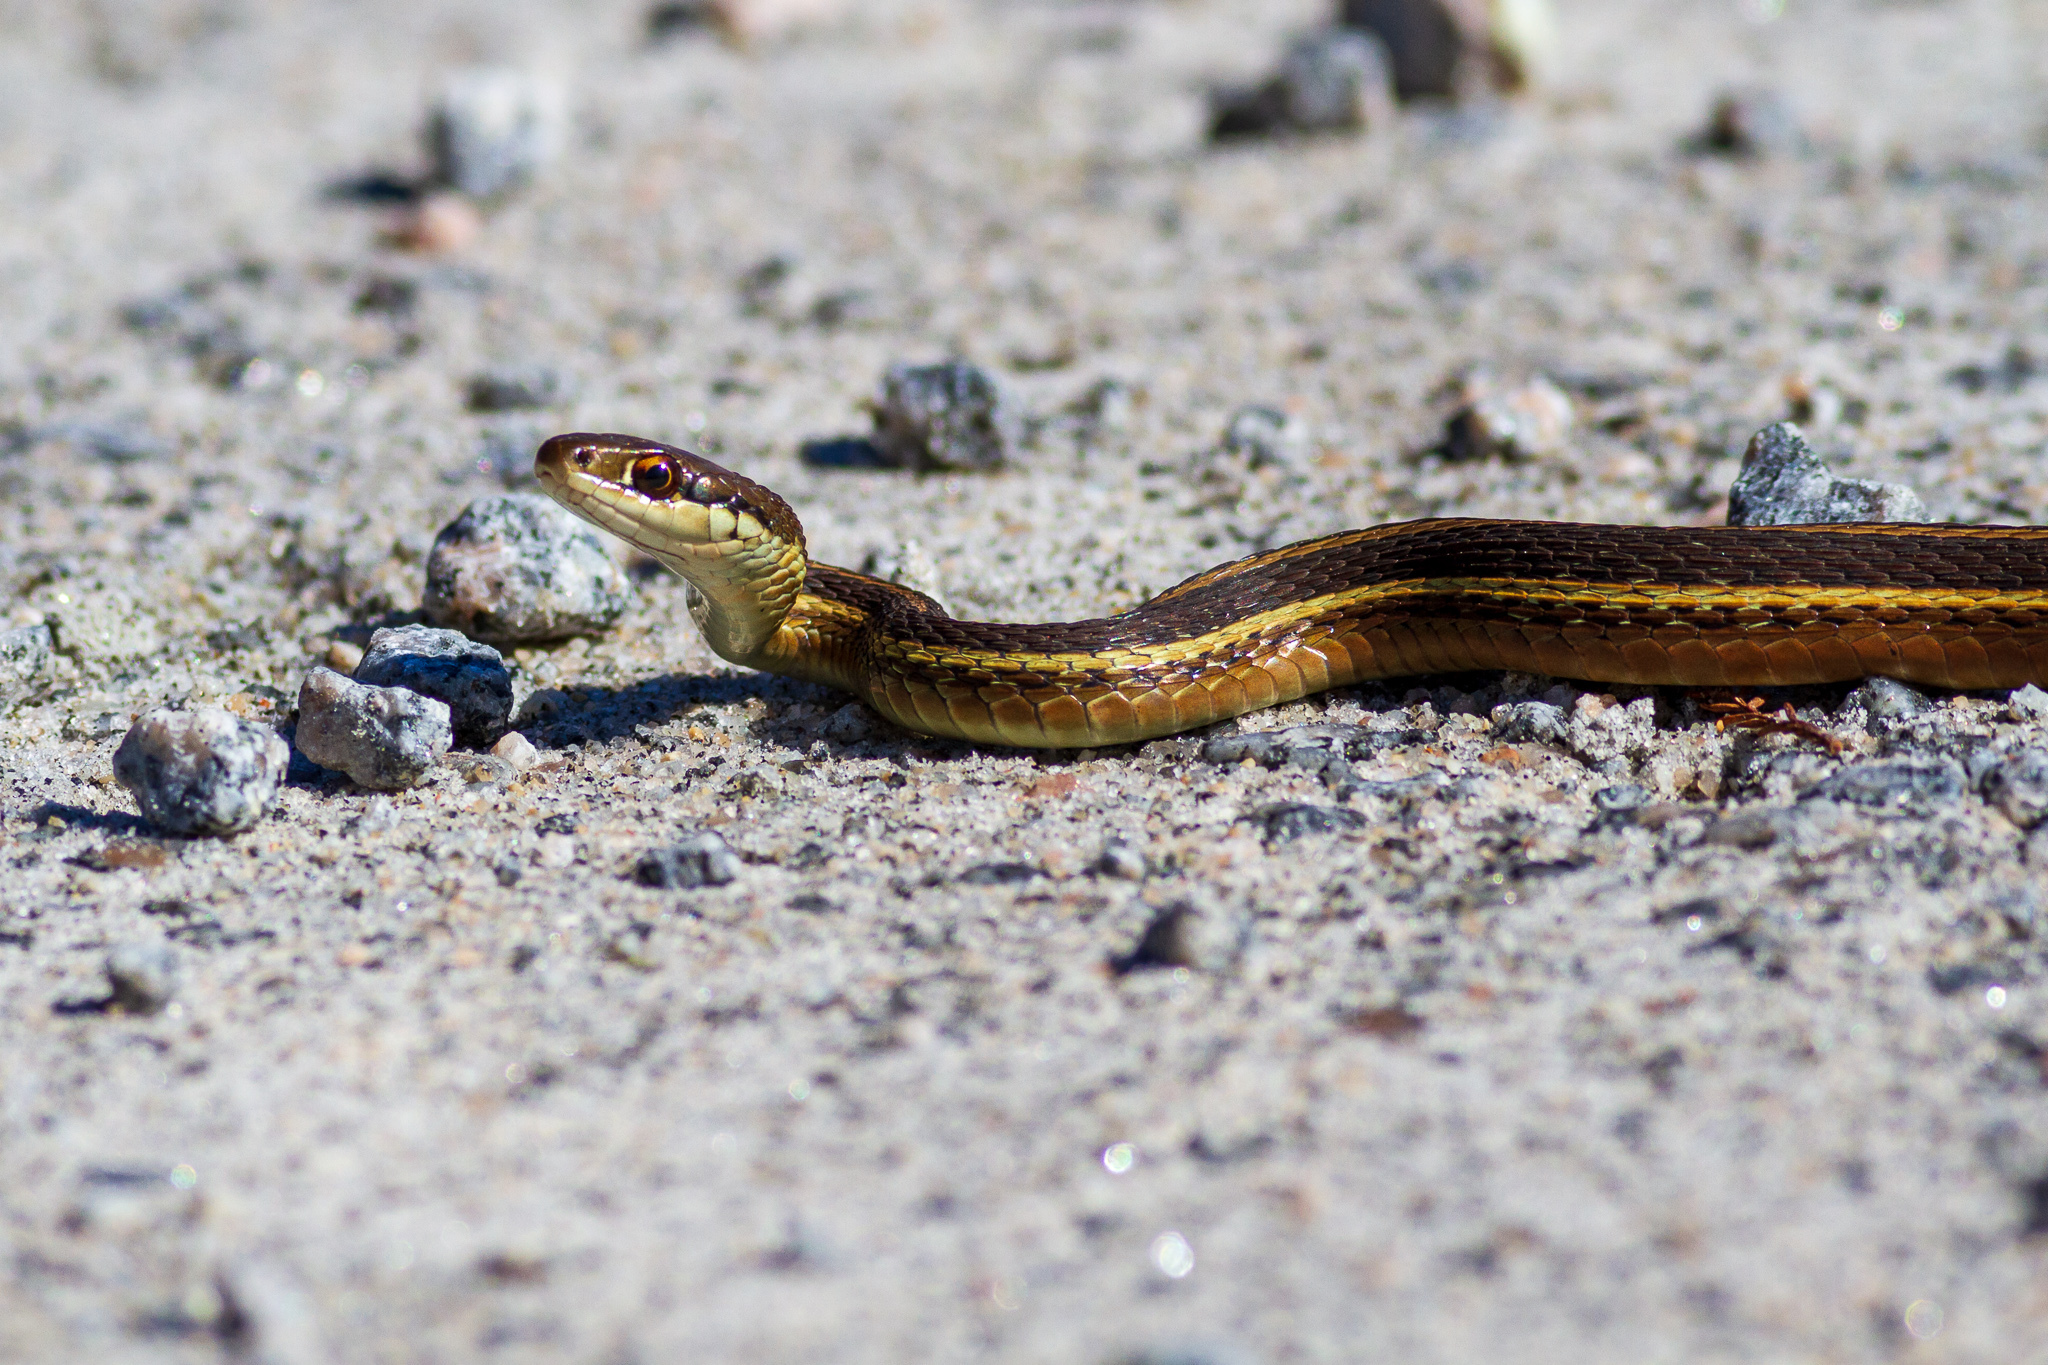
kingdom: Animalia
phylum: Chordata
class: Squamata
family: Colubridae
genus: Thamnophis
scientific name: Thamnophis saurita
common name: Eastern ribbonsnake
